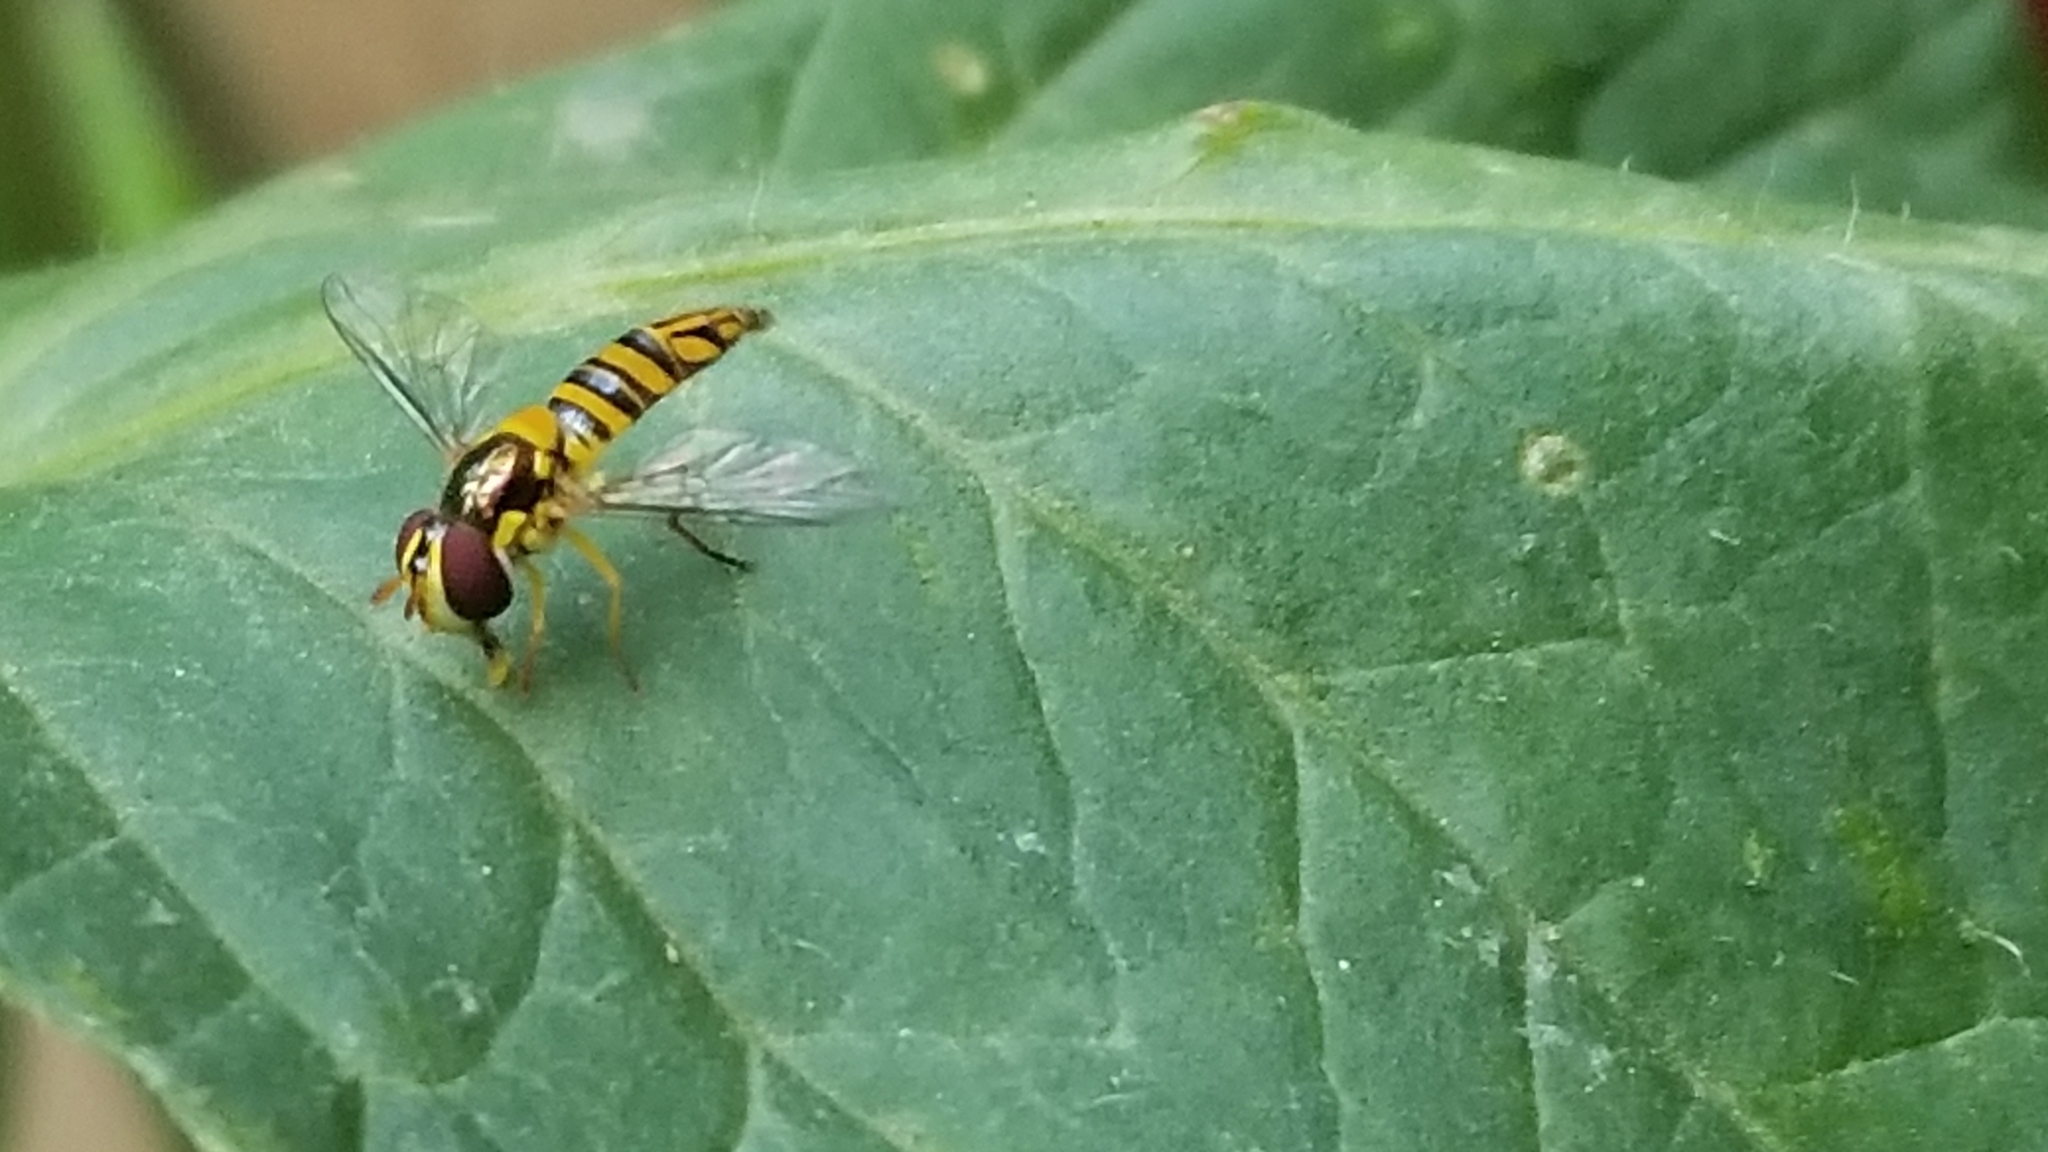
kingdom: Animalia
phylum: Arthropoda
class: Insecta
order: Diptera
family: Syrphidae
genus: Allograpta
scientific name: Allograpta obliqua
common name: Common oblique syrphid
